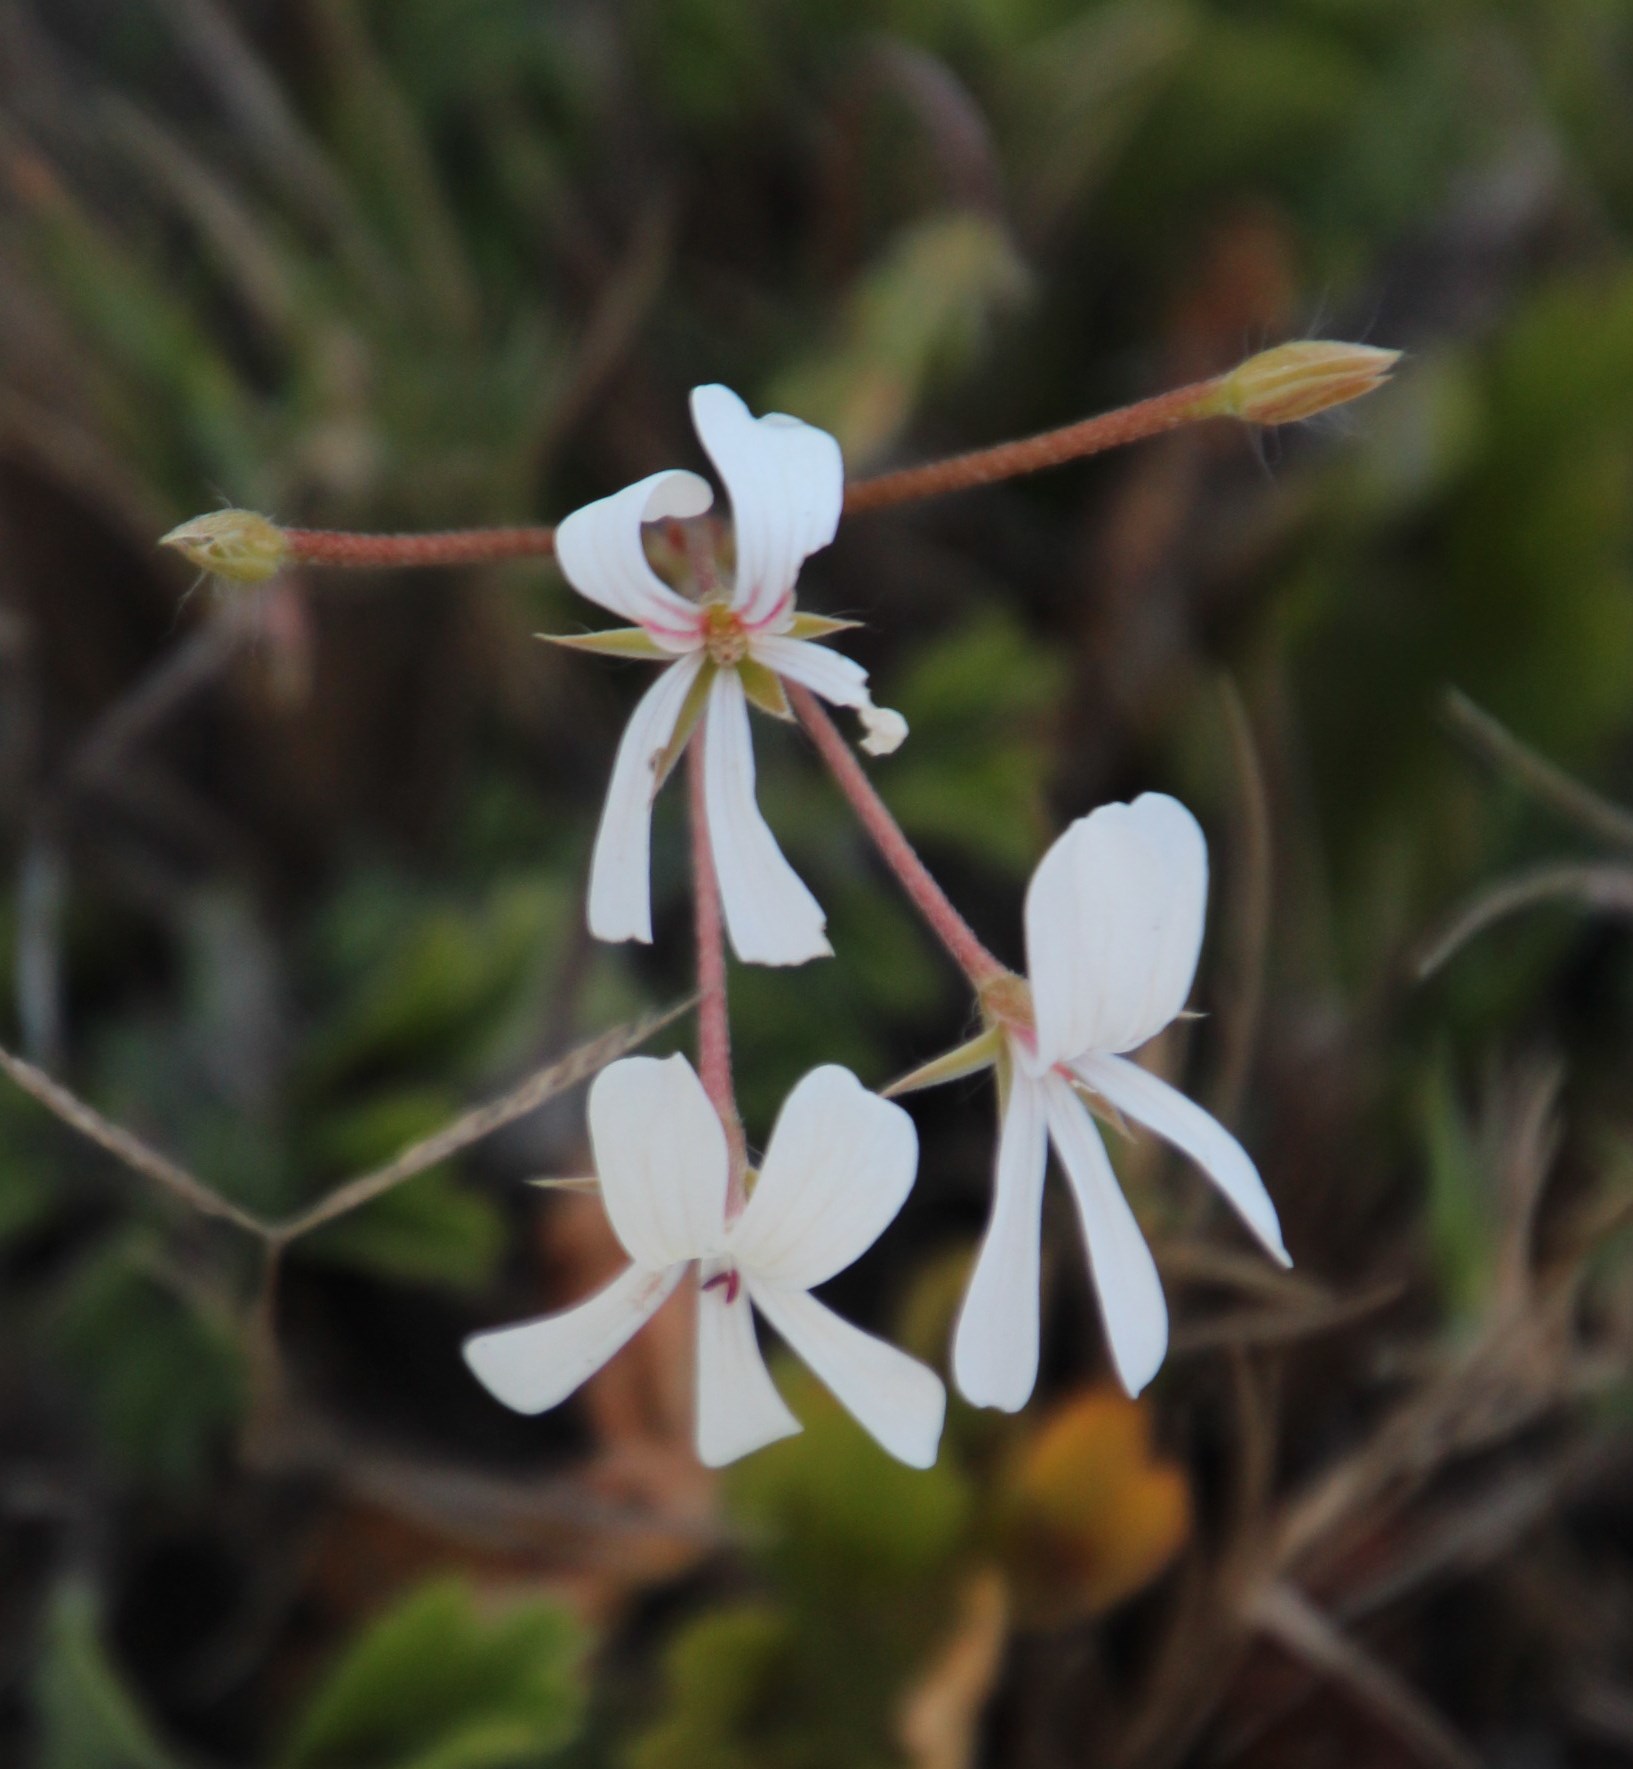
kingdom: Plantae
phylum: Tracheophyta
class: Magnoliopsida
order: Geraniales
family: Geraniaceae
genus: Pelargonium
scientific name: Pelargonium alchemilloides
